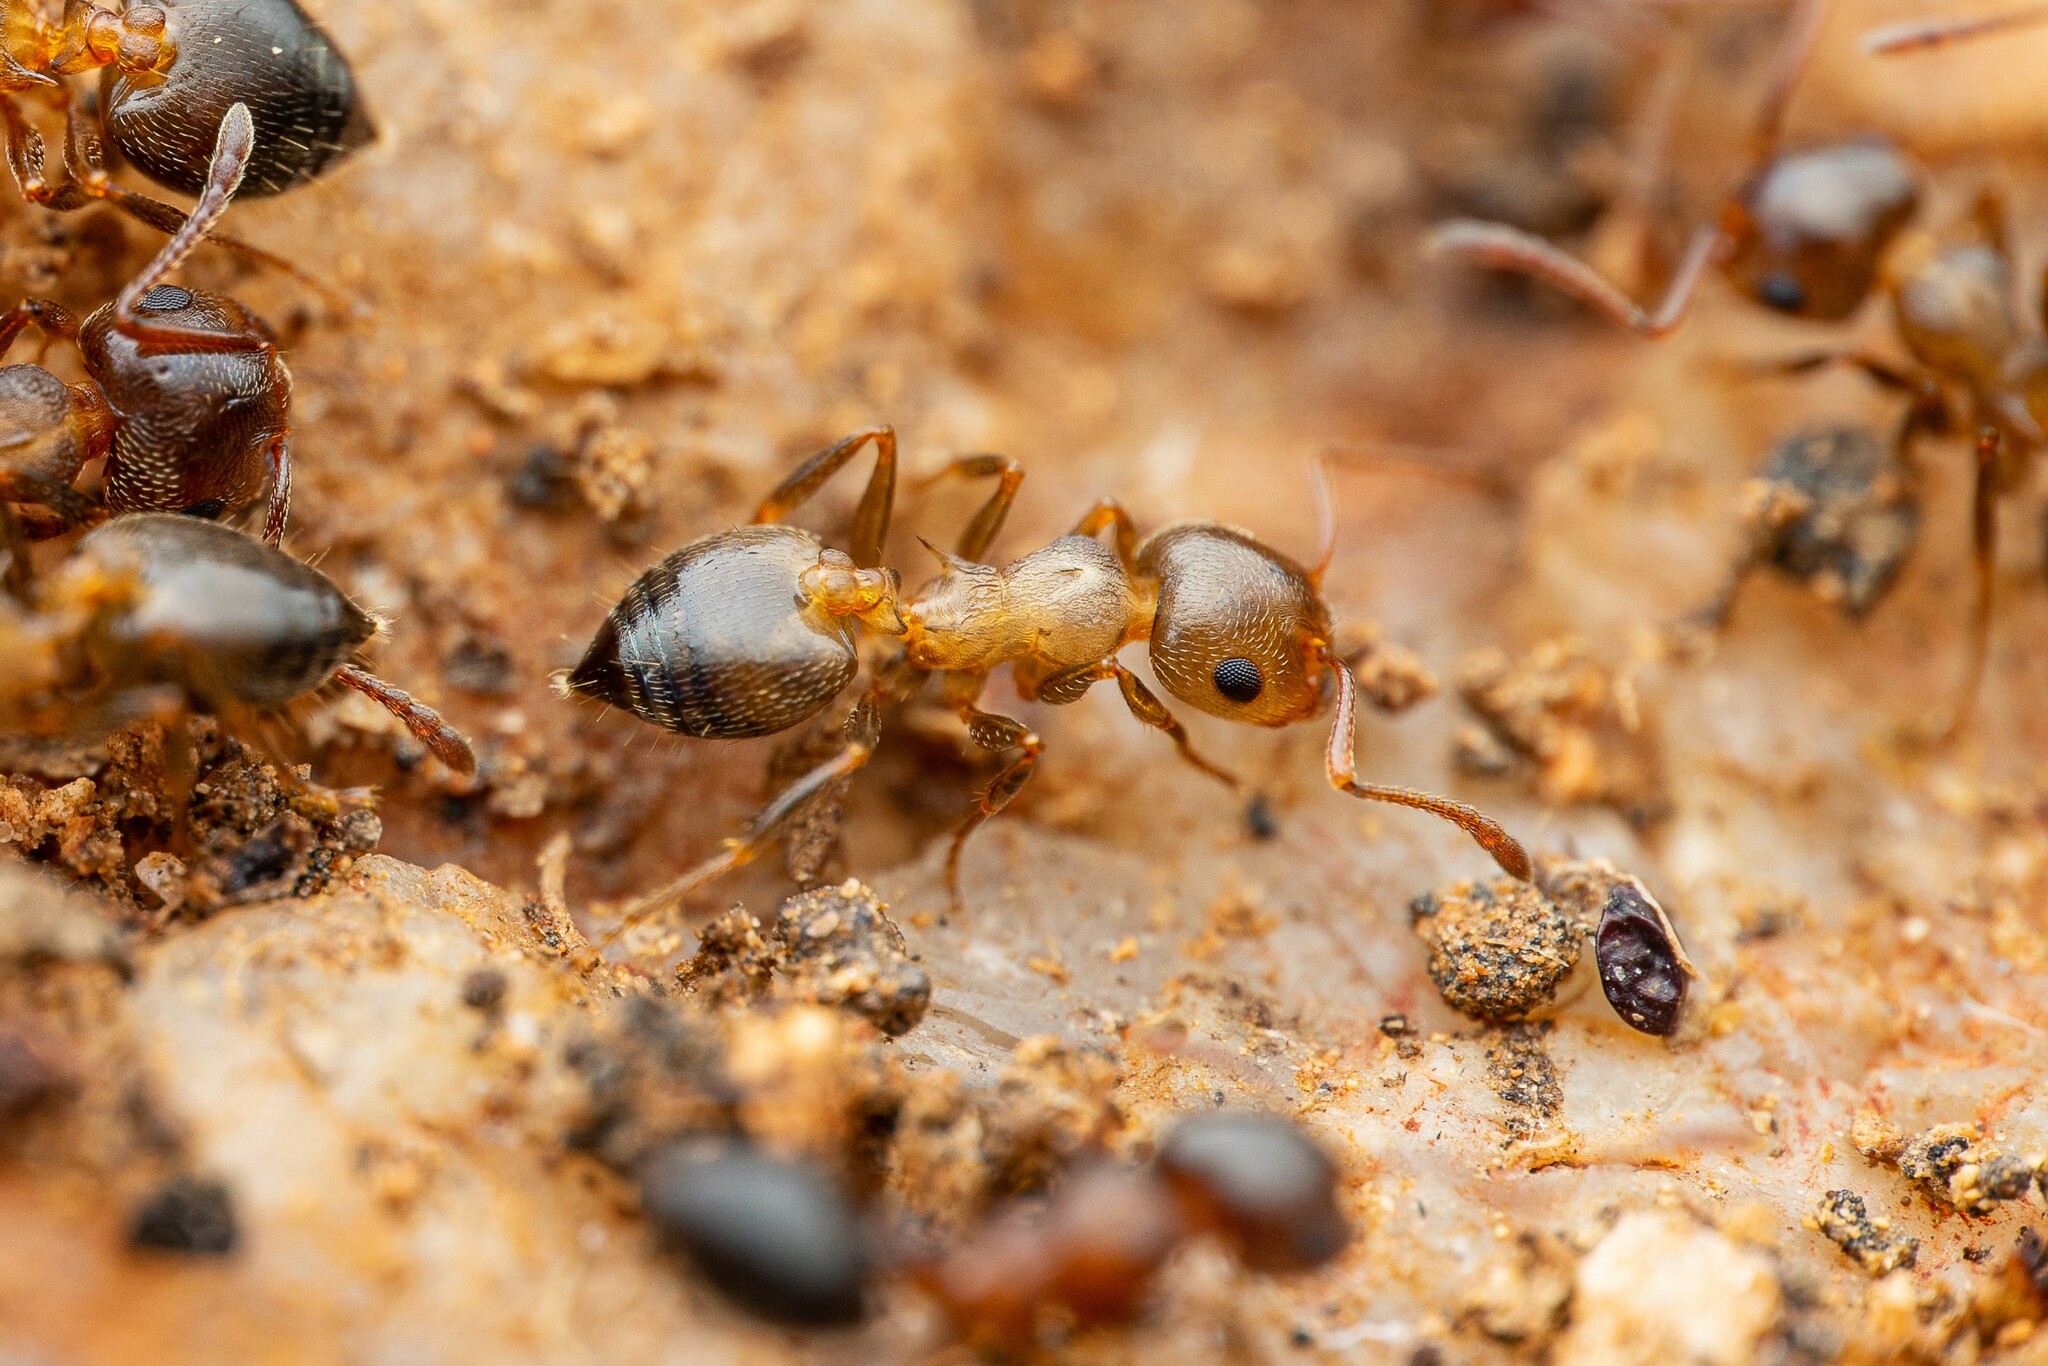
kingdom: Animalia
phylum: Arthropoda
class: Insecta
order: Hymenoptera
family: Formicidae
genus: Crematogaster
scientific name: Crematogaster opuntiae
